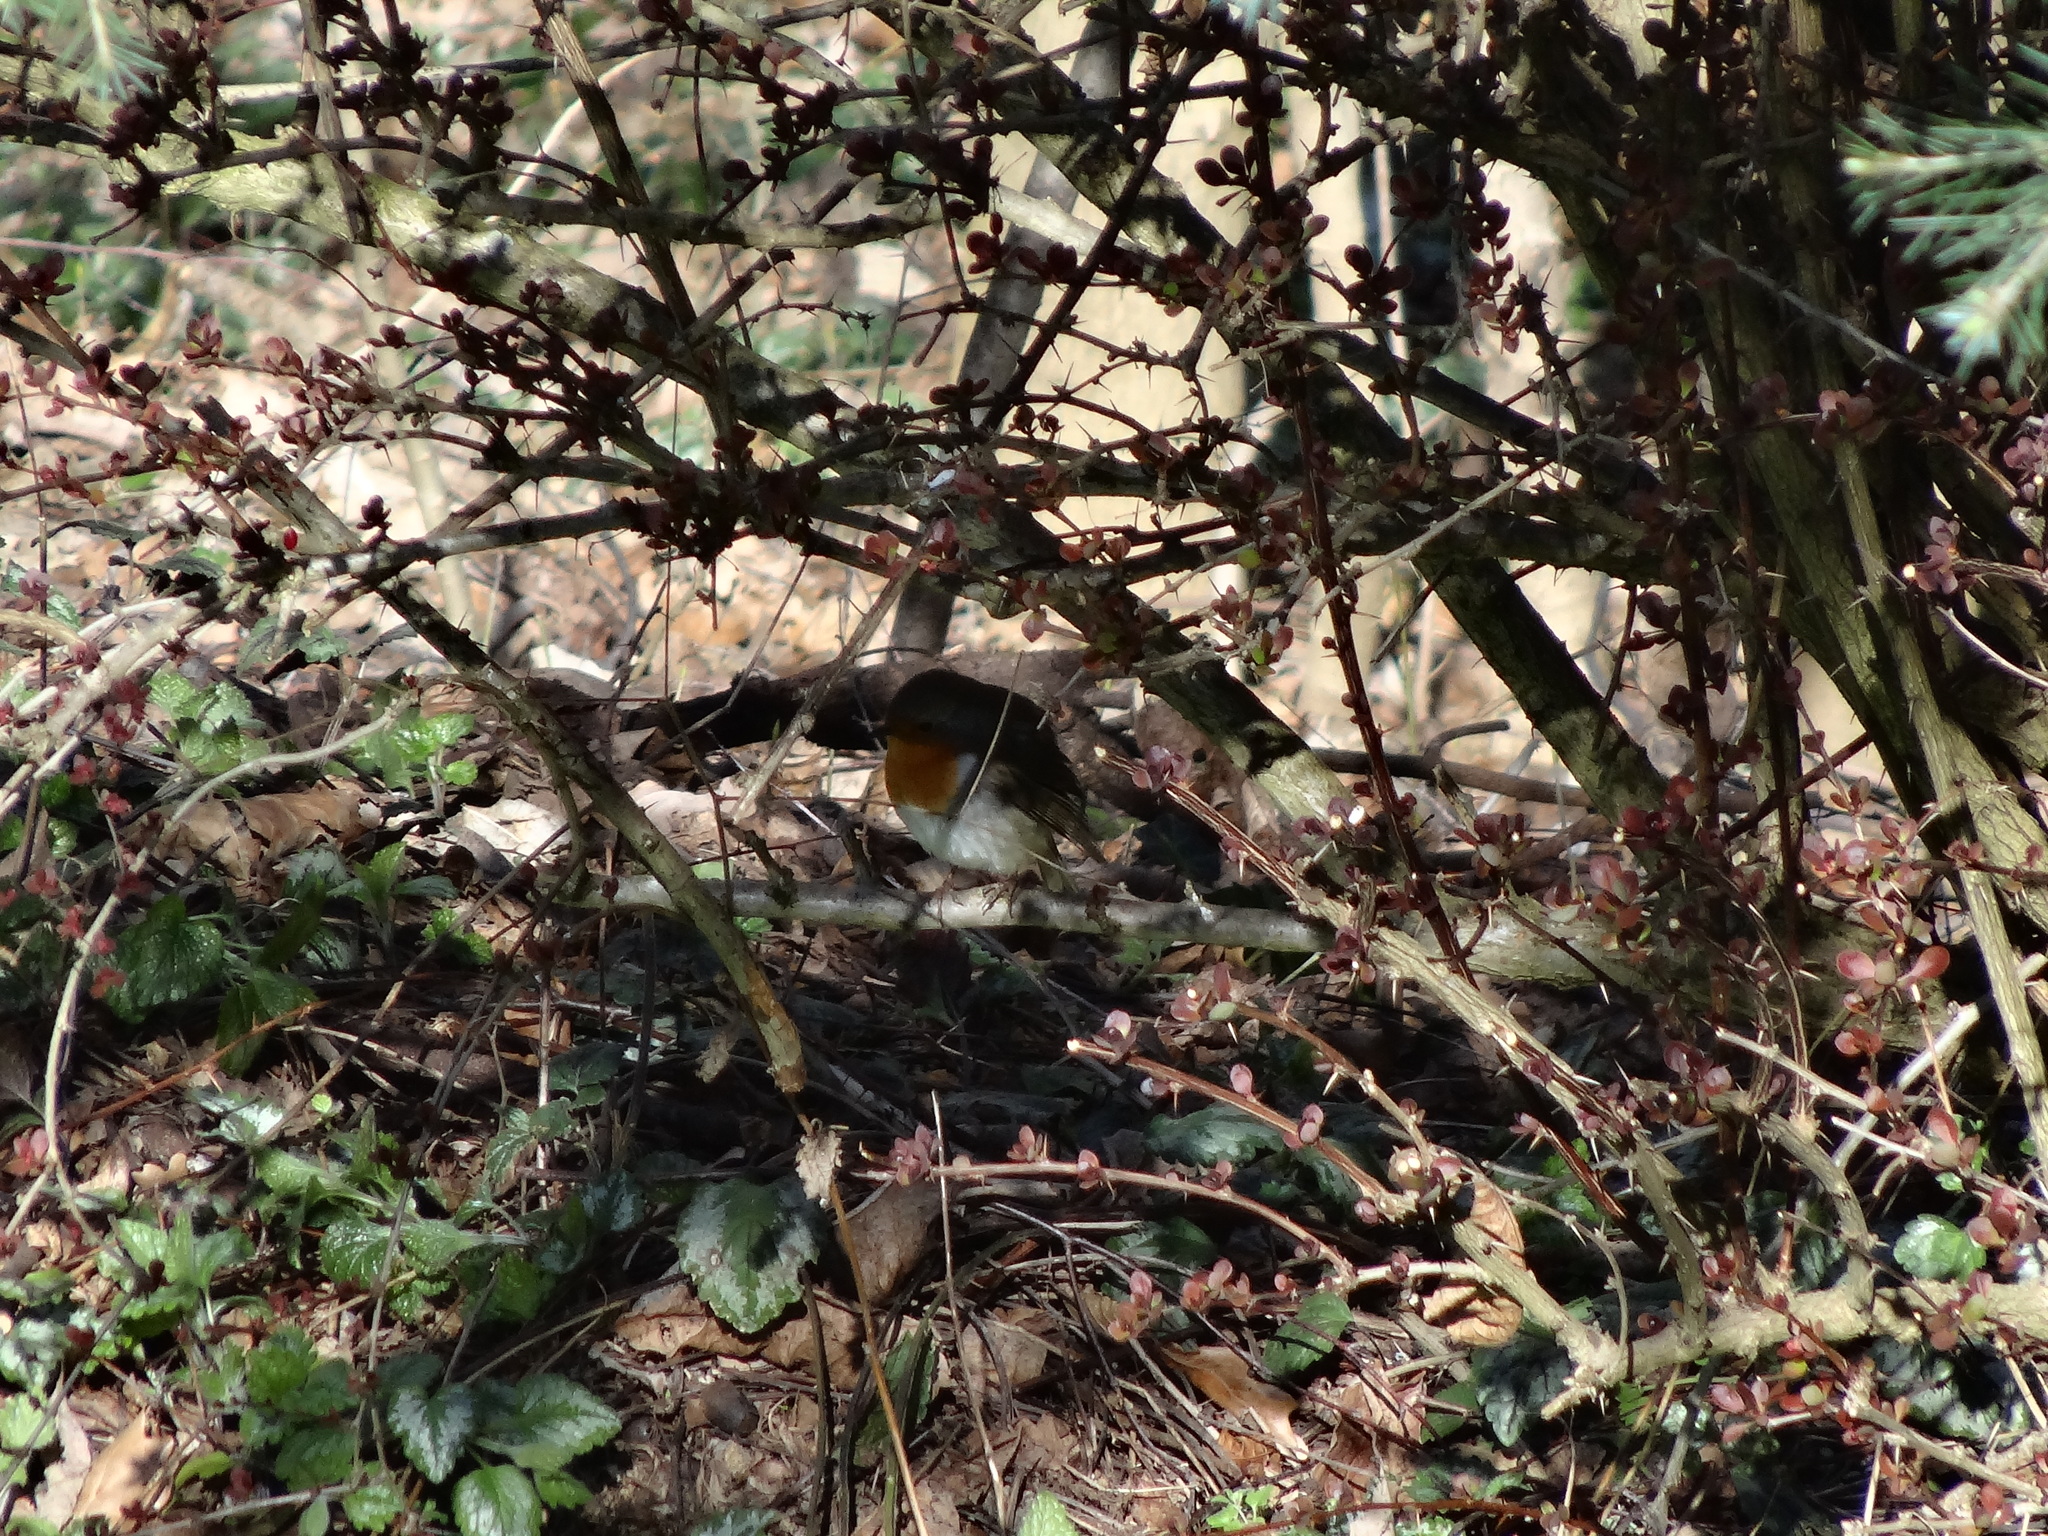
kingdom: Animalia
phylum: Chordata
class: Aves
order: Passeriformes
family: Muscicapidae
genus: Erithacus
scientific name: Erithacus rubecula
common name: European robin
